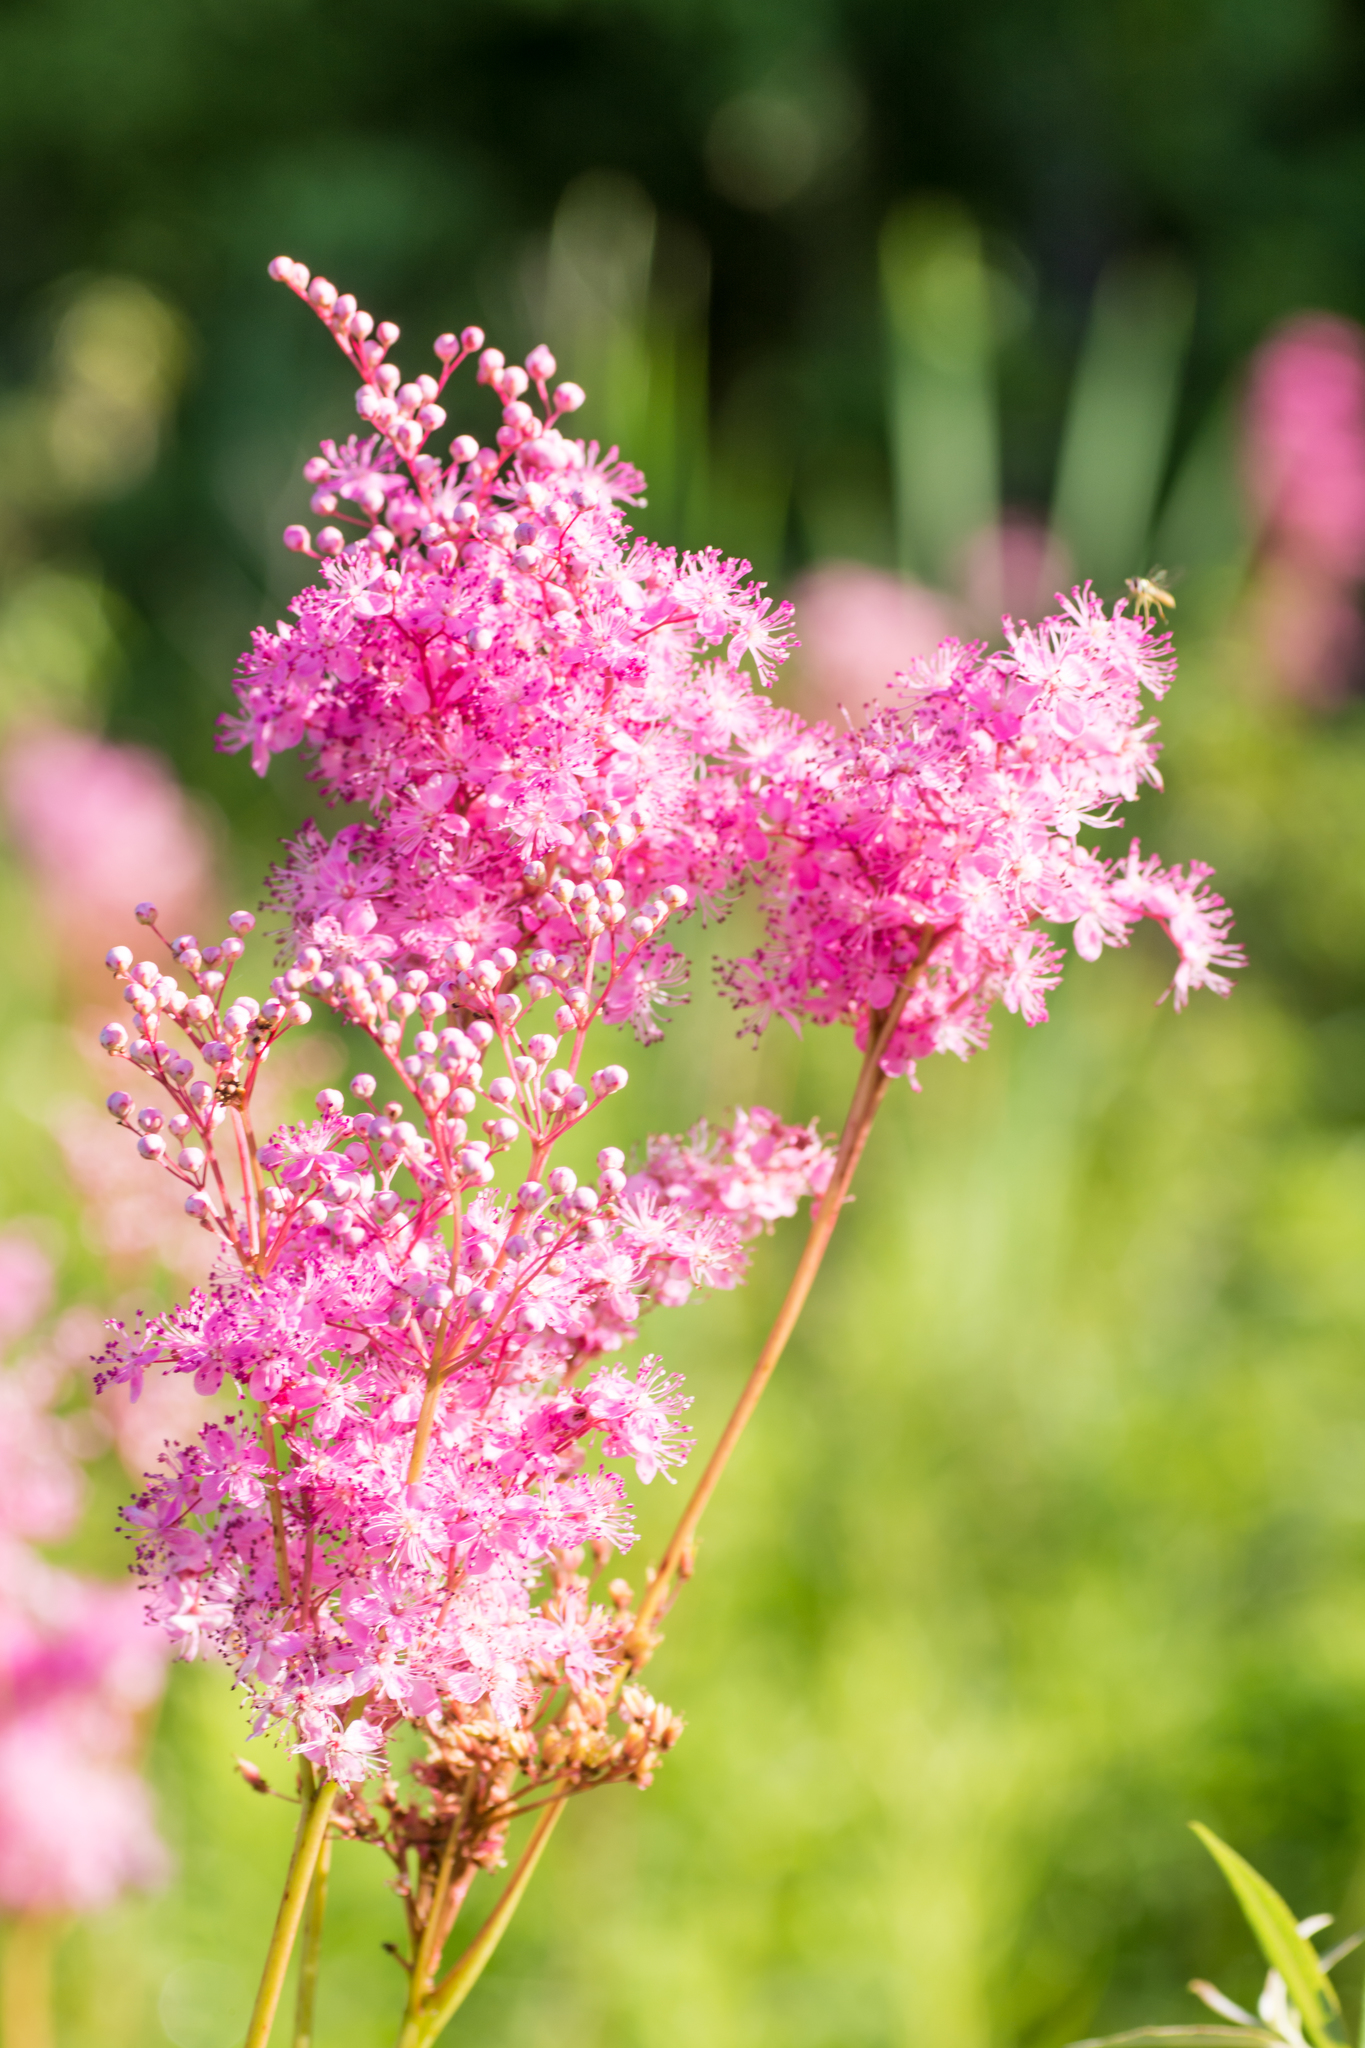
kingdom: Plantae
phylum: Tracheophyta
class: Magnoliopsida
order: Rosales
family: Rosaceae
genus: Filipendula
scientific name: Filipendula rubra
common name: Queen-of-the-prairie
